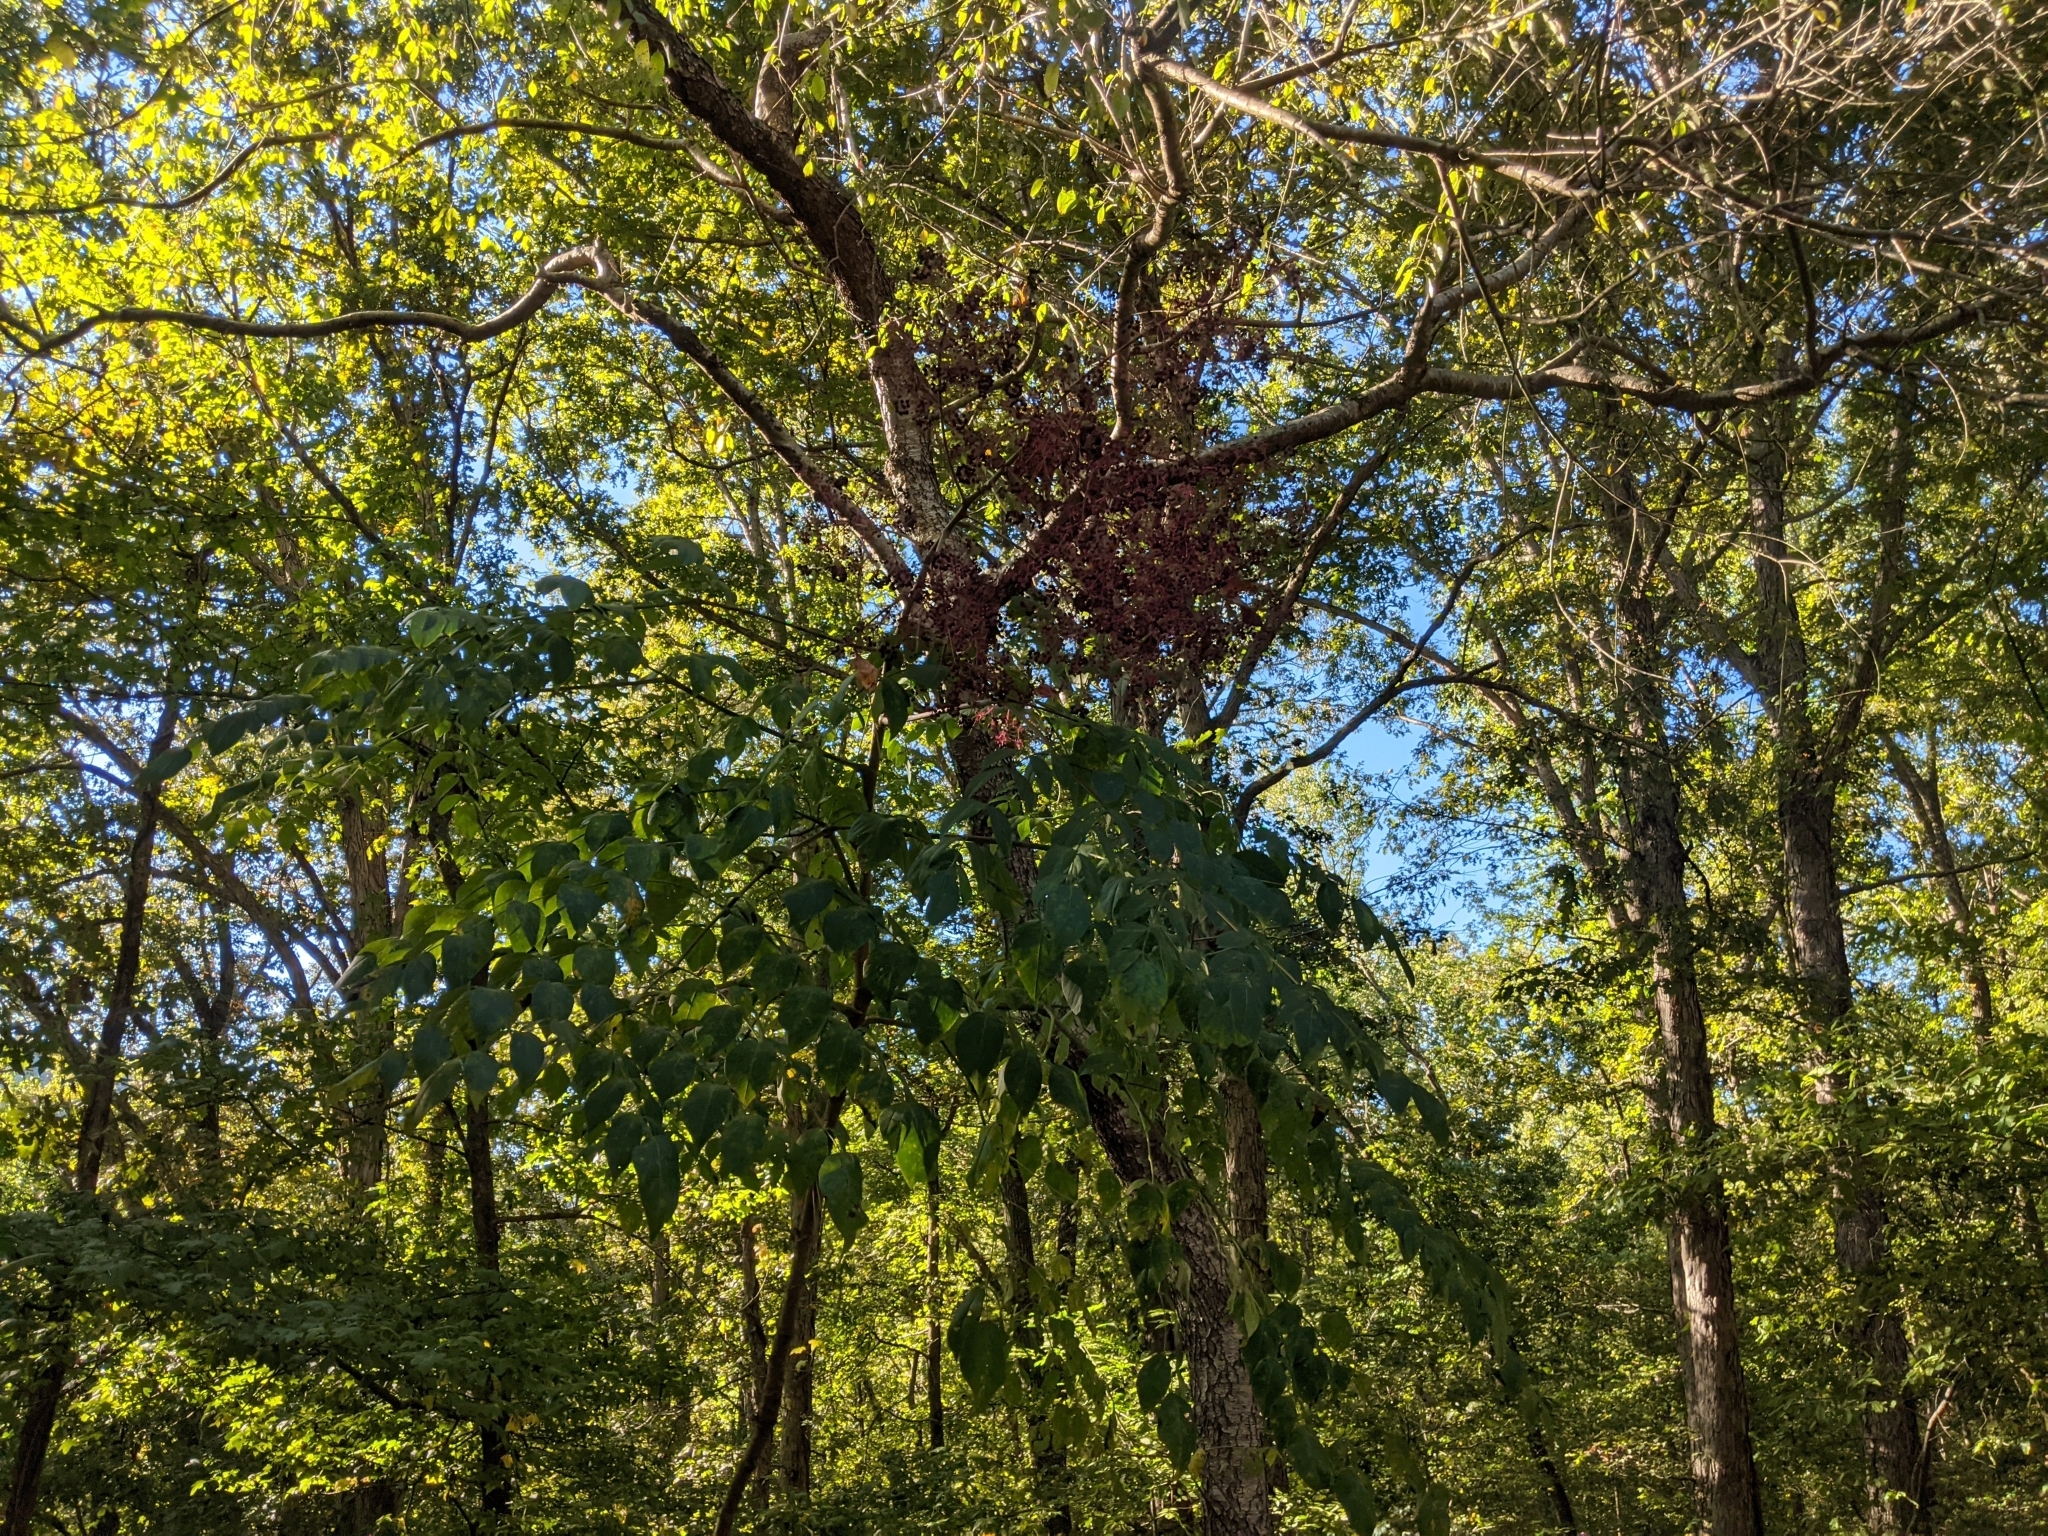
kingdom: Plantae
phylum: Tracheophyta
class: Magnoliopsida
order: Apiales
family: Araliaceae
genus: Aralia
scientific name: Aralia spinosa
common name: Hercules'-club
